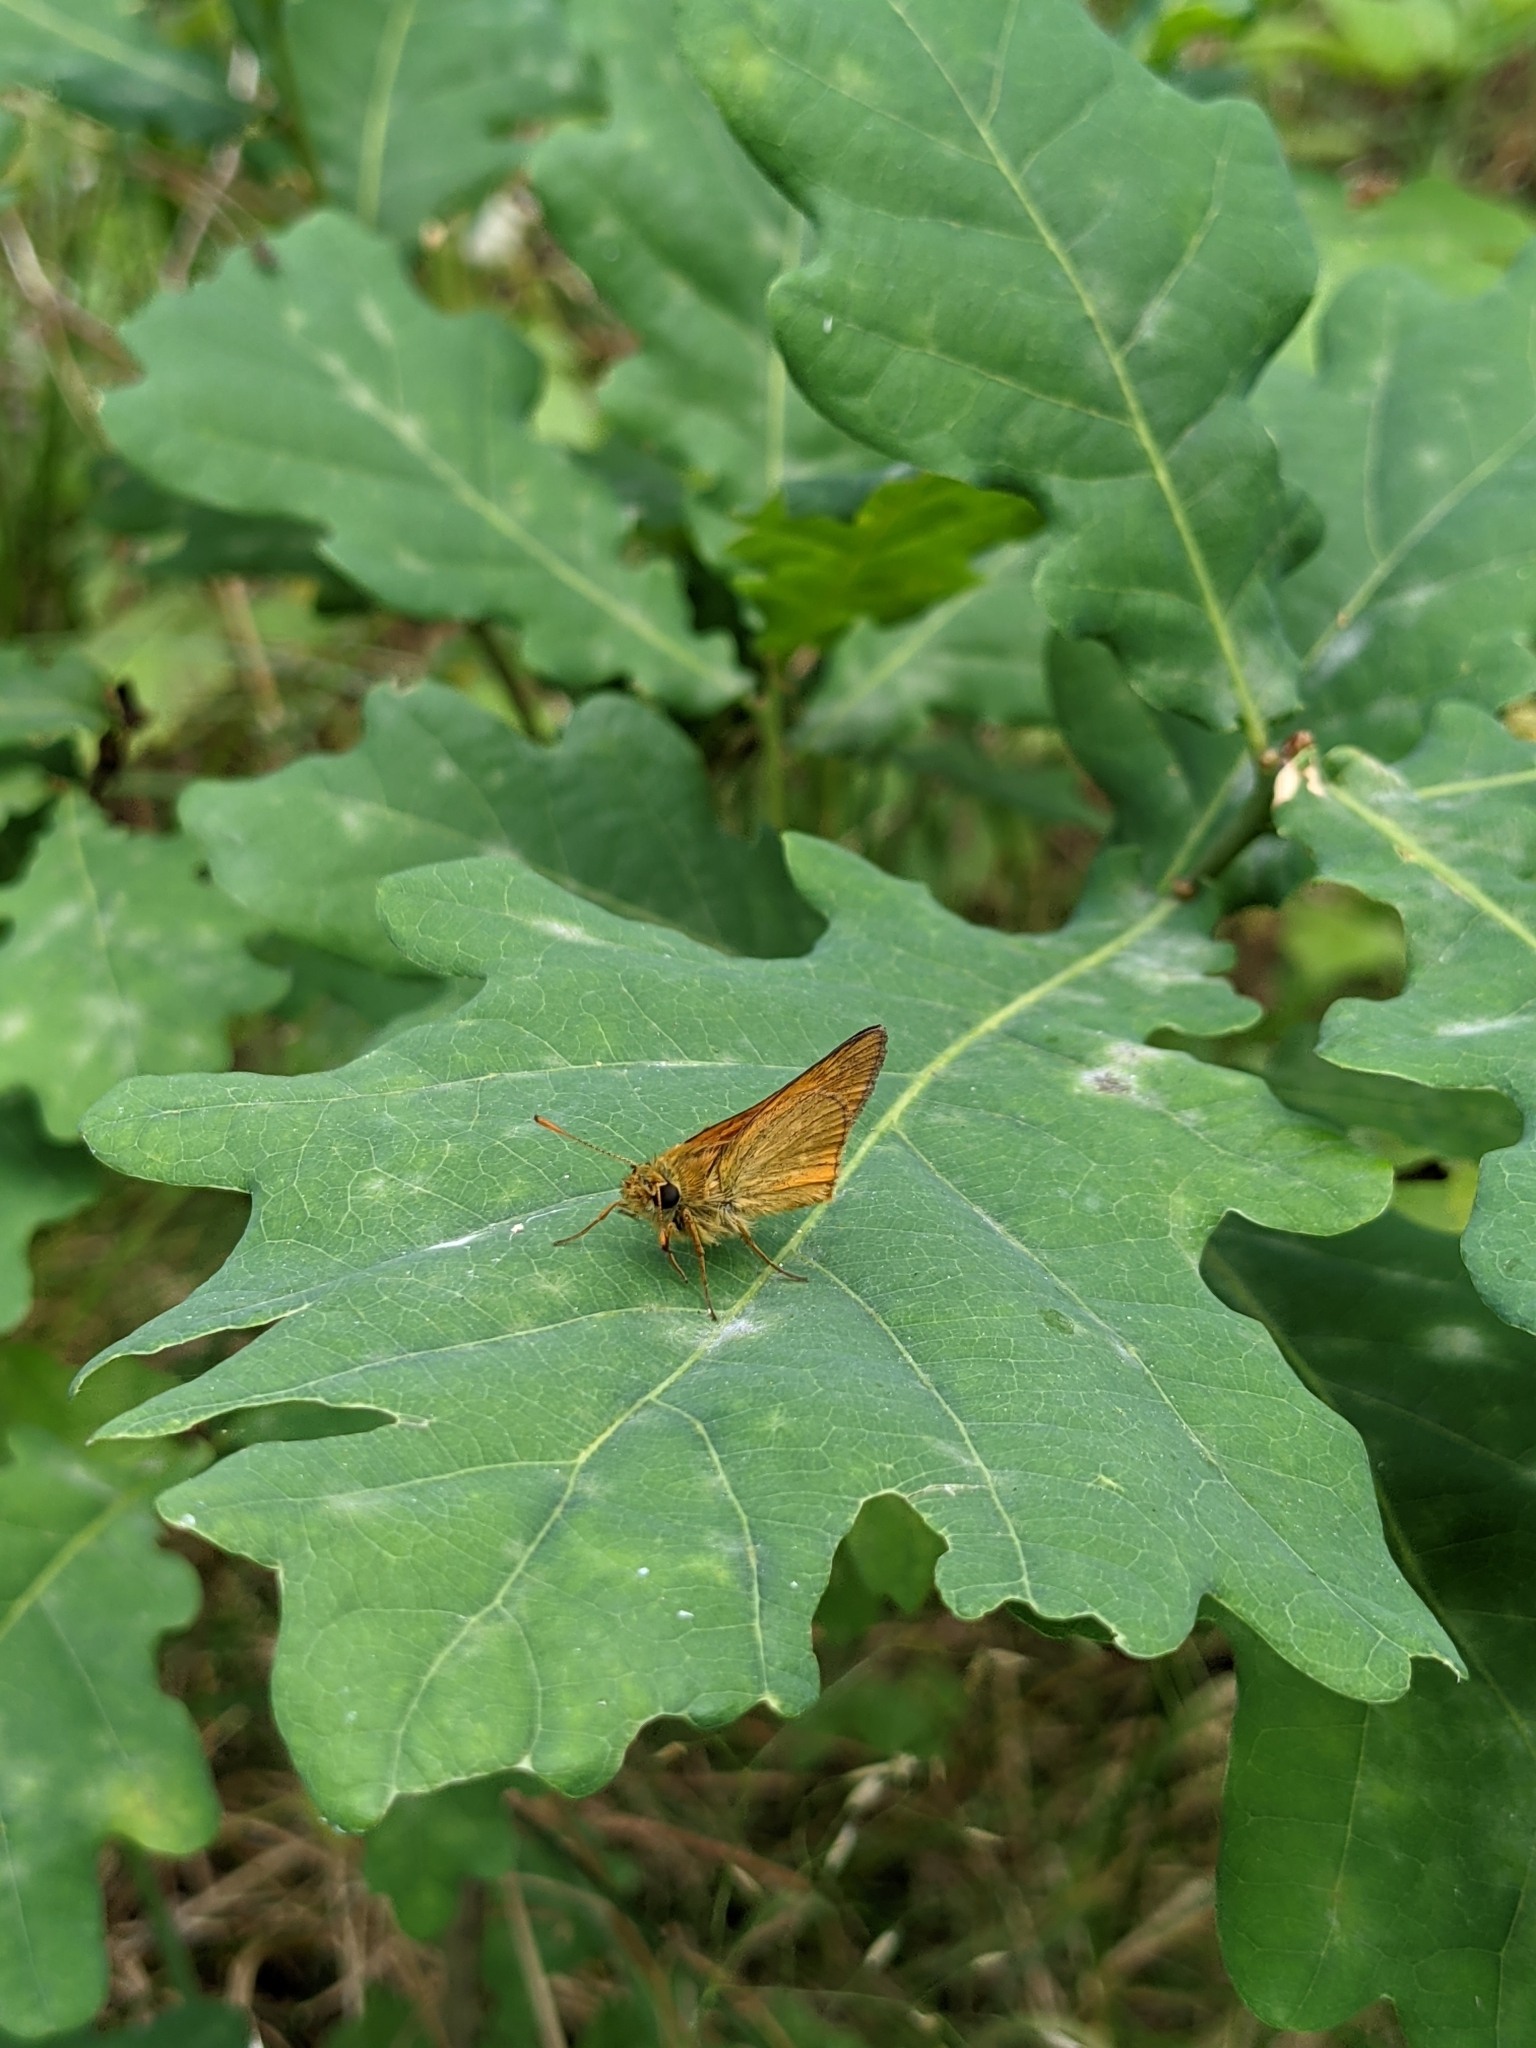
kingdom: Animalia
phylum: Arthropoda
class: Insecta
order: Lepidoptera
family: Hesperiidae
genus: Ochlodes
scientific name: Ochlodes venata
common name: Large skipper
